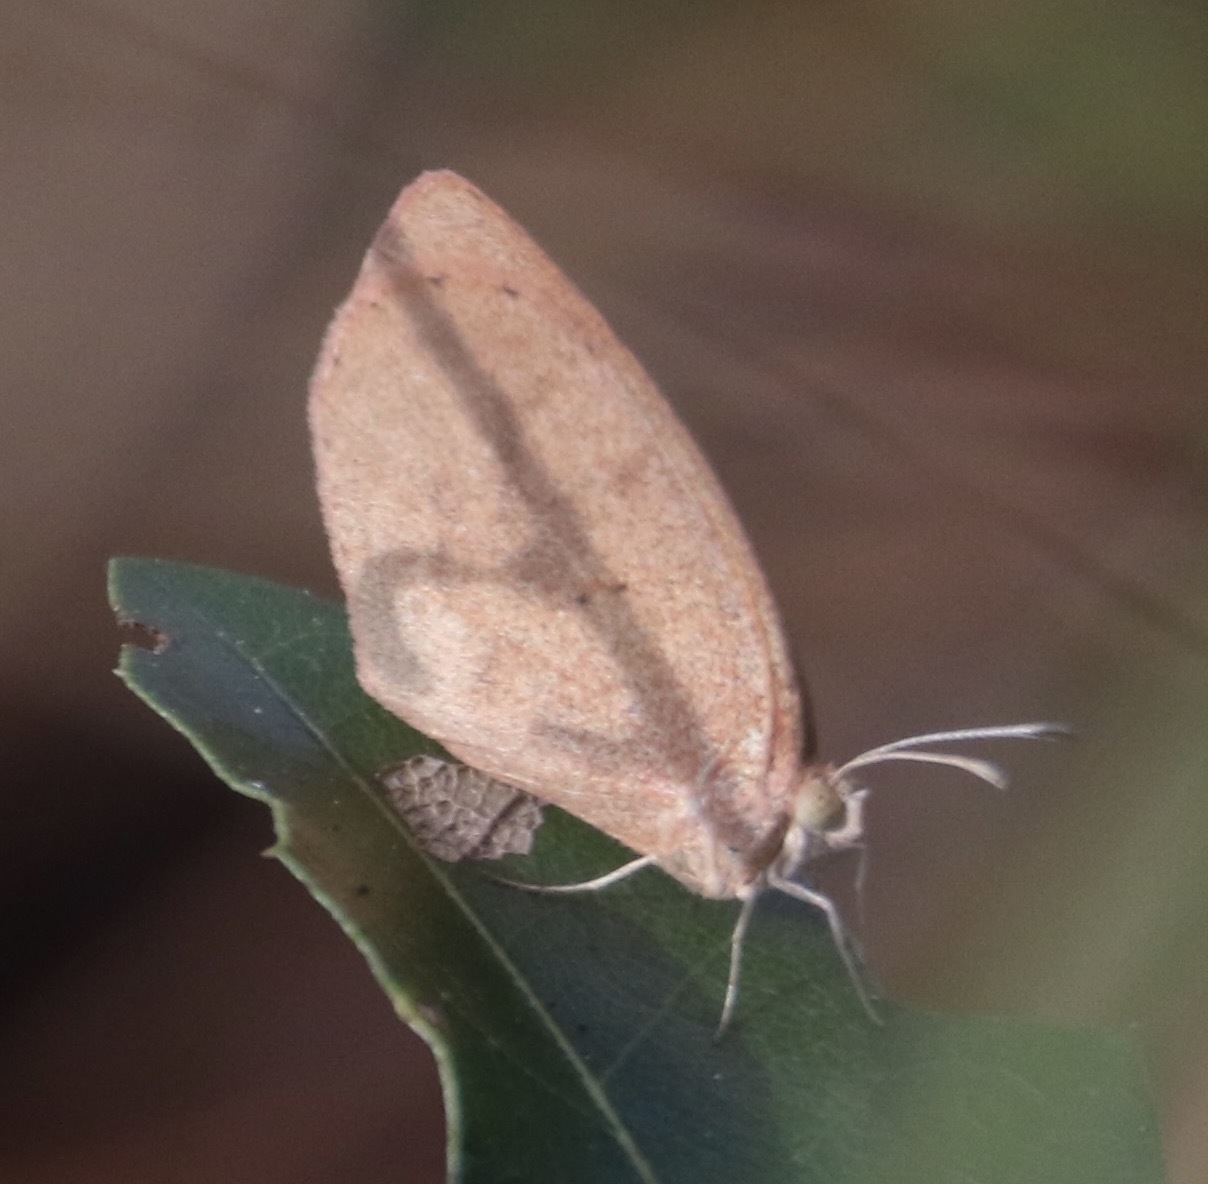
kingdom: Animalia
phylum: Arthropoda
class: Insecta
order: Lepidoptera
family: Pieridae
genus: Eurema
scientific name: Eurema daira
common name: Barred sulphur
